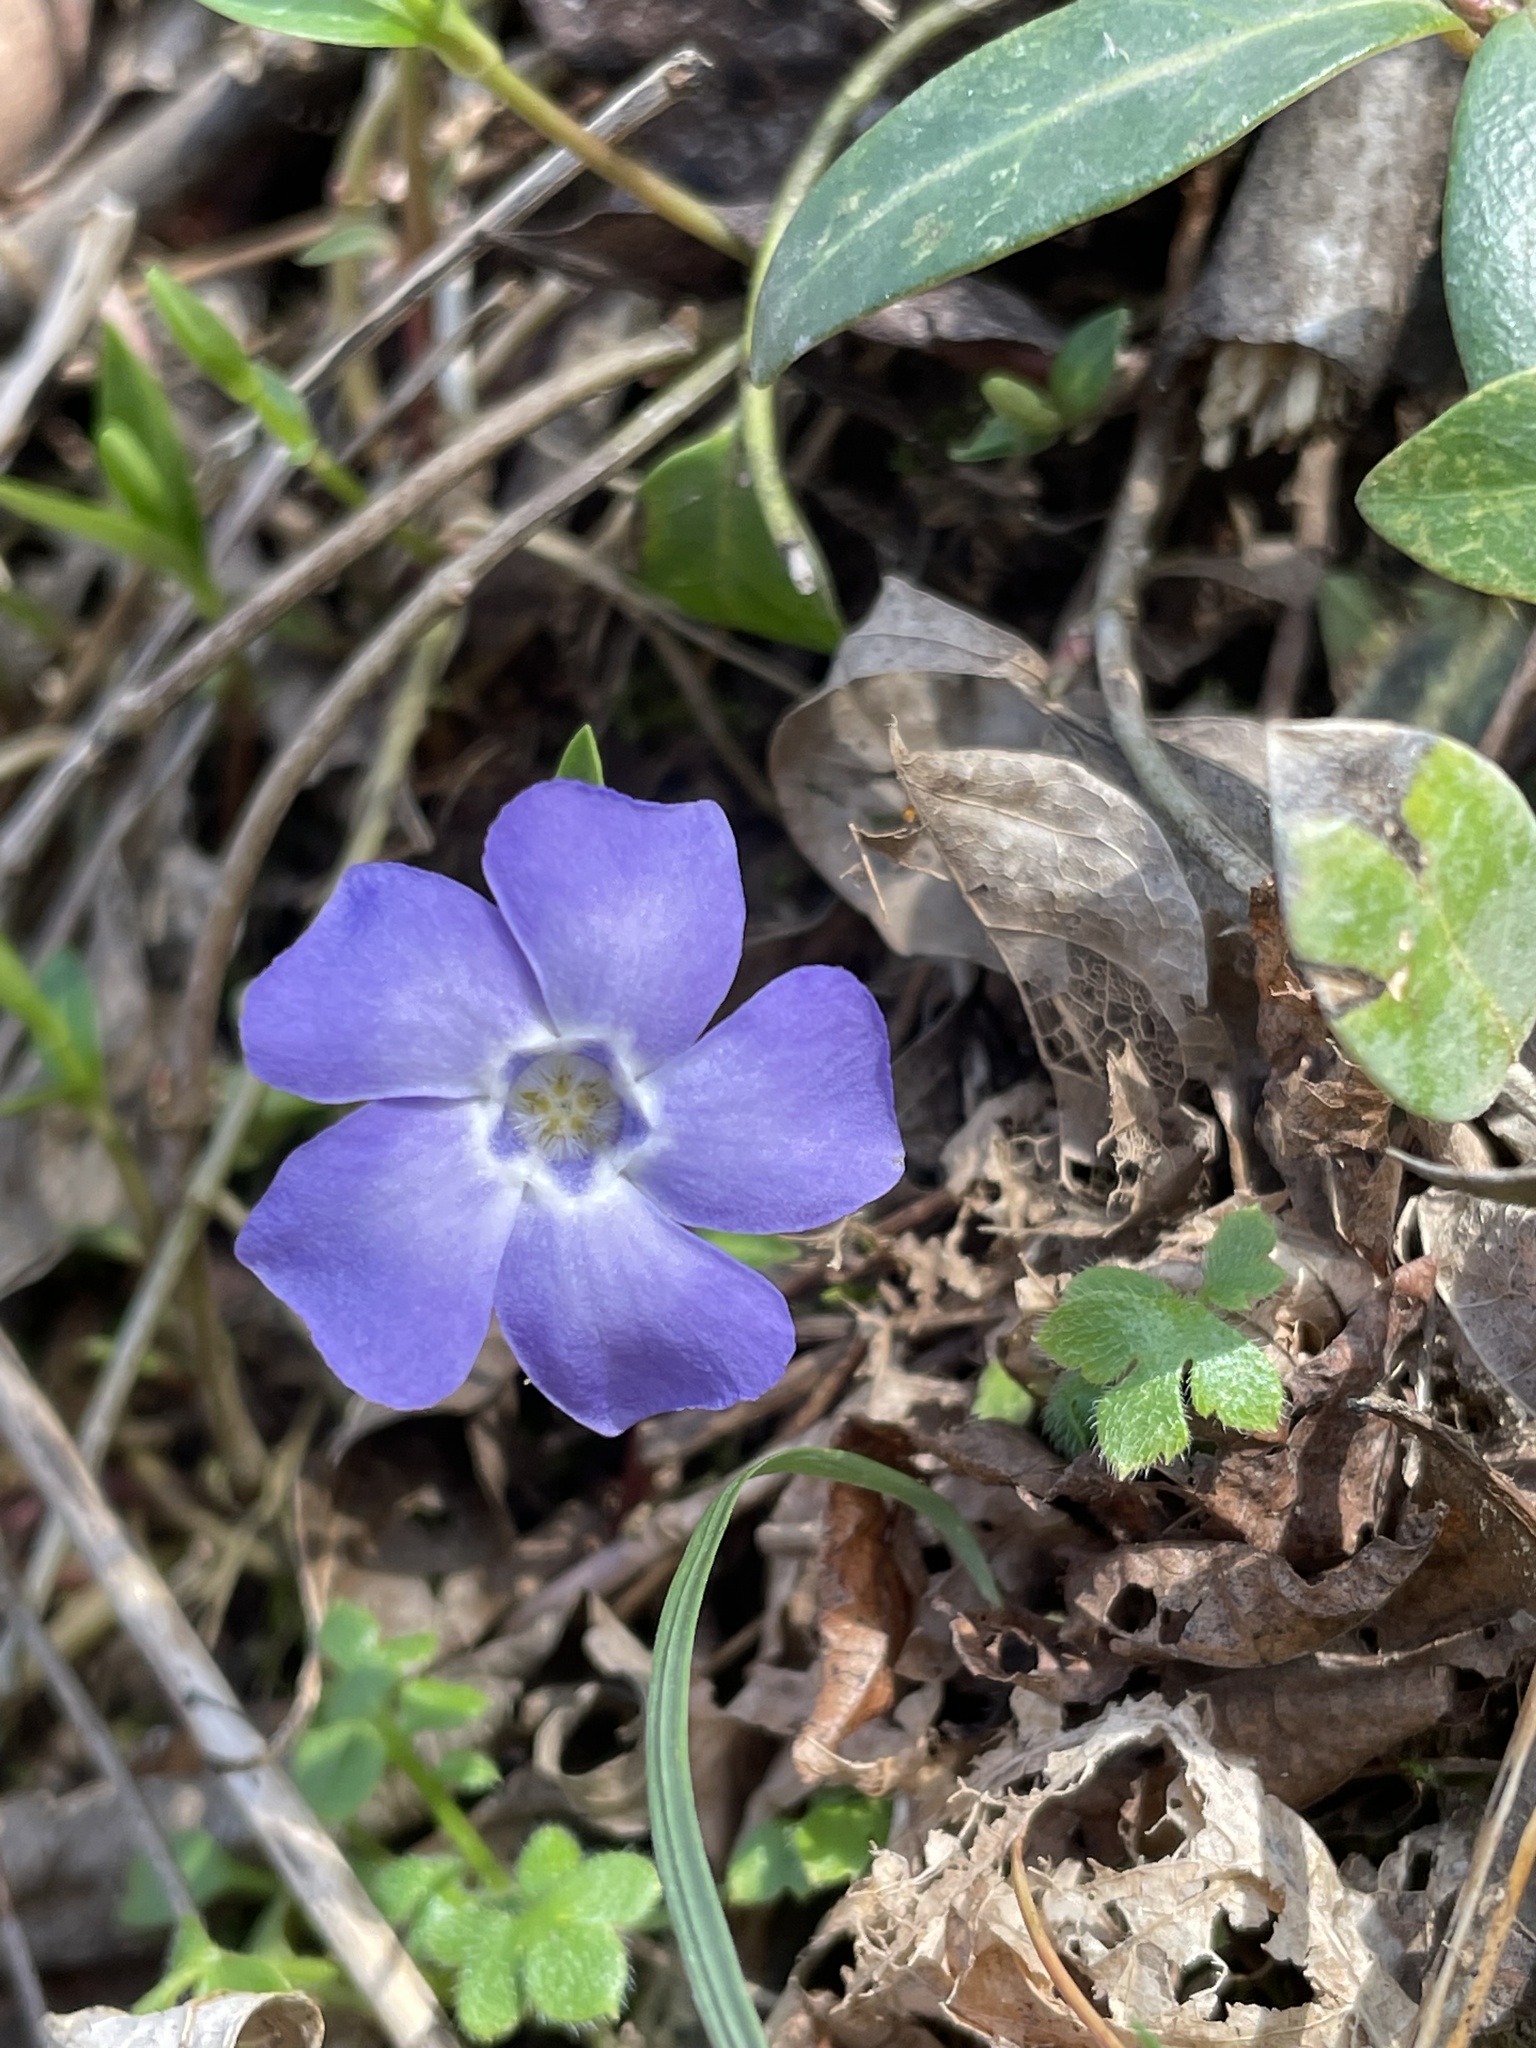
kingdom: Plantae
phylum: Tracheophyta
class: Magnoliopsida
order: Gentianales
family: Apocynaceae
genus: Vinca
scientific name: Vinca minor
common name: Lesser periwinkle
